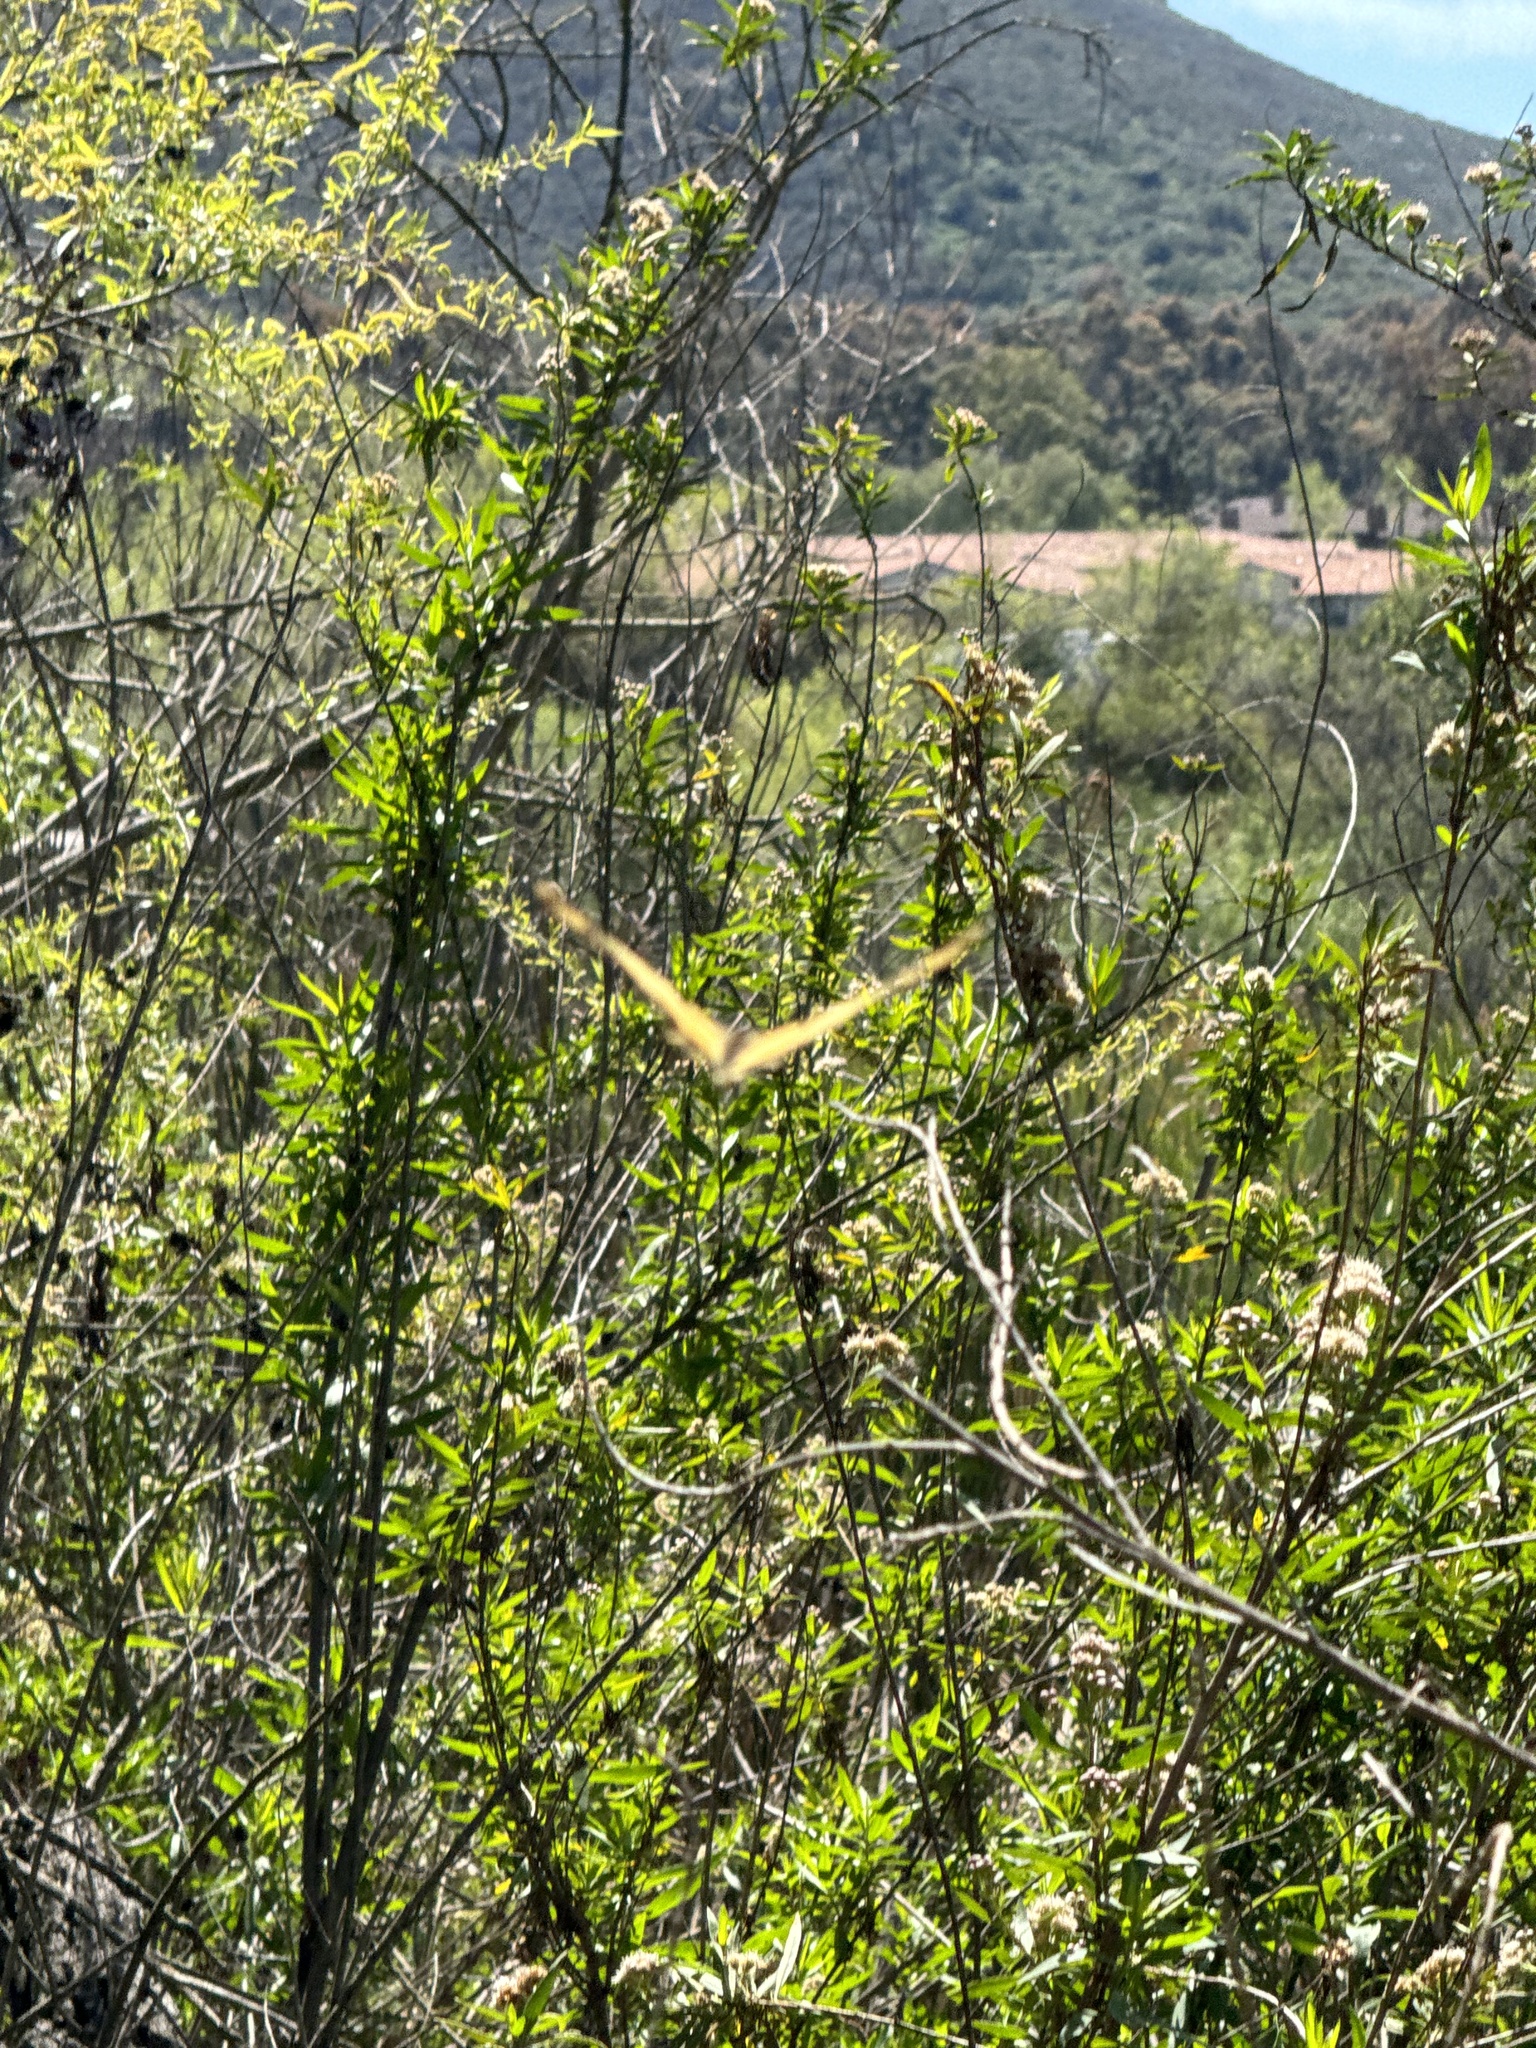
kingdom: Animalia
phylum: Arthropoda
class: Insecta
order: Lepidoptera
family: Papilionidae
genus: Papilio
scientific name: Papilio rutulus
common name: Western tiger swallowtail
